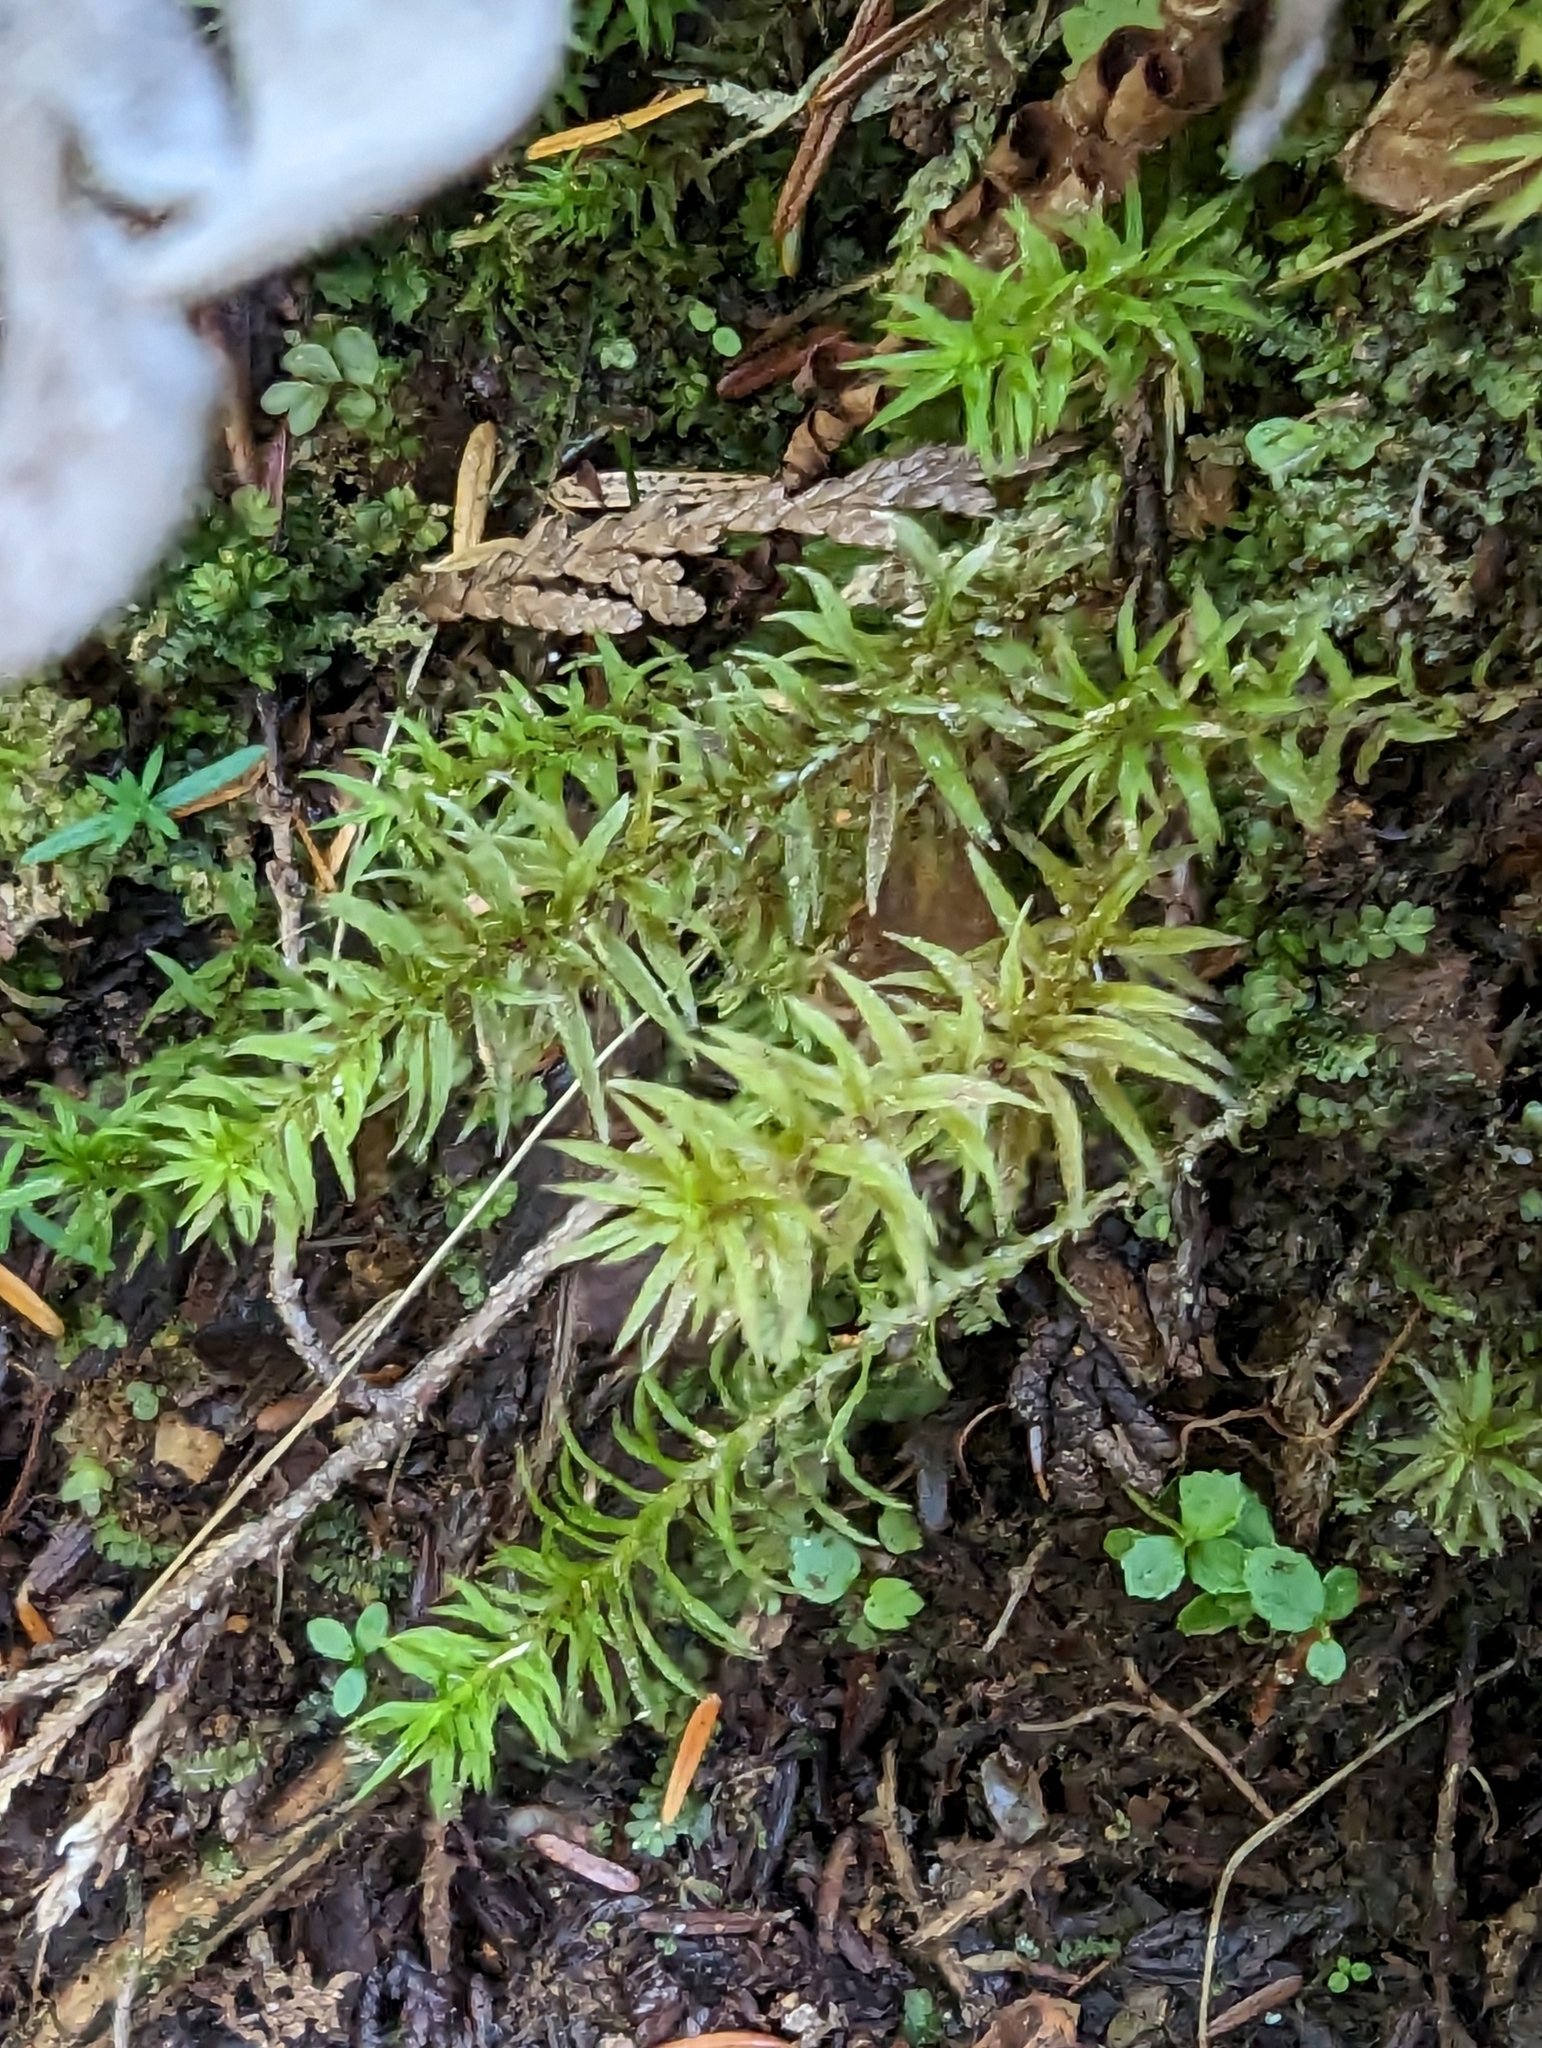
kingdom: Plantae
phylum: Bryophyta
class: Polytrichopsida
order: Polytrichales
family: Polytrichaceae
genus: Pogonatum
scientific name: Pogonatum contortum
